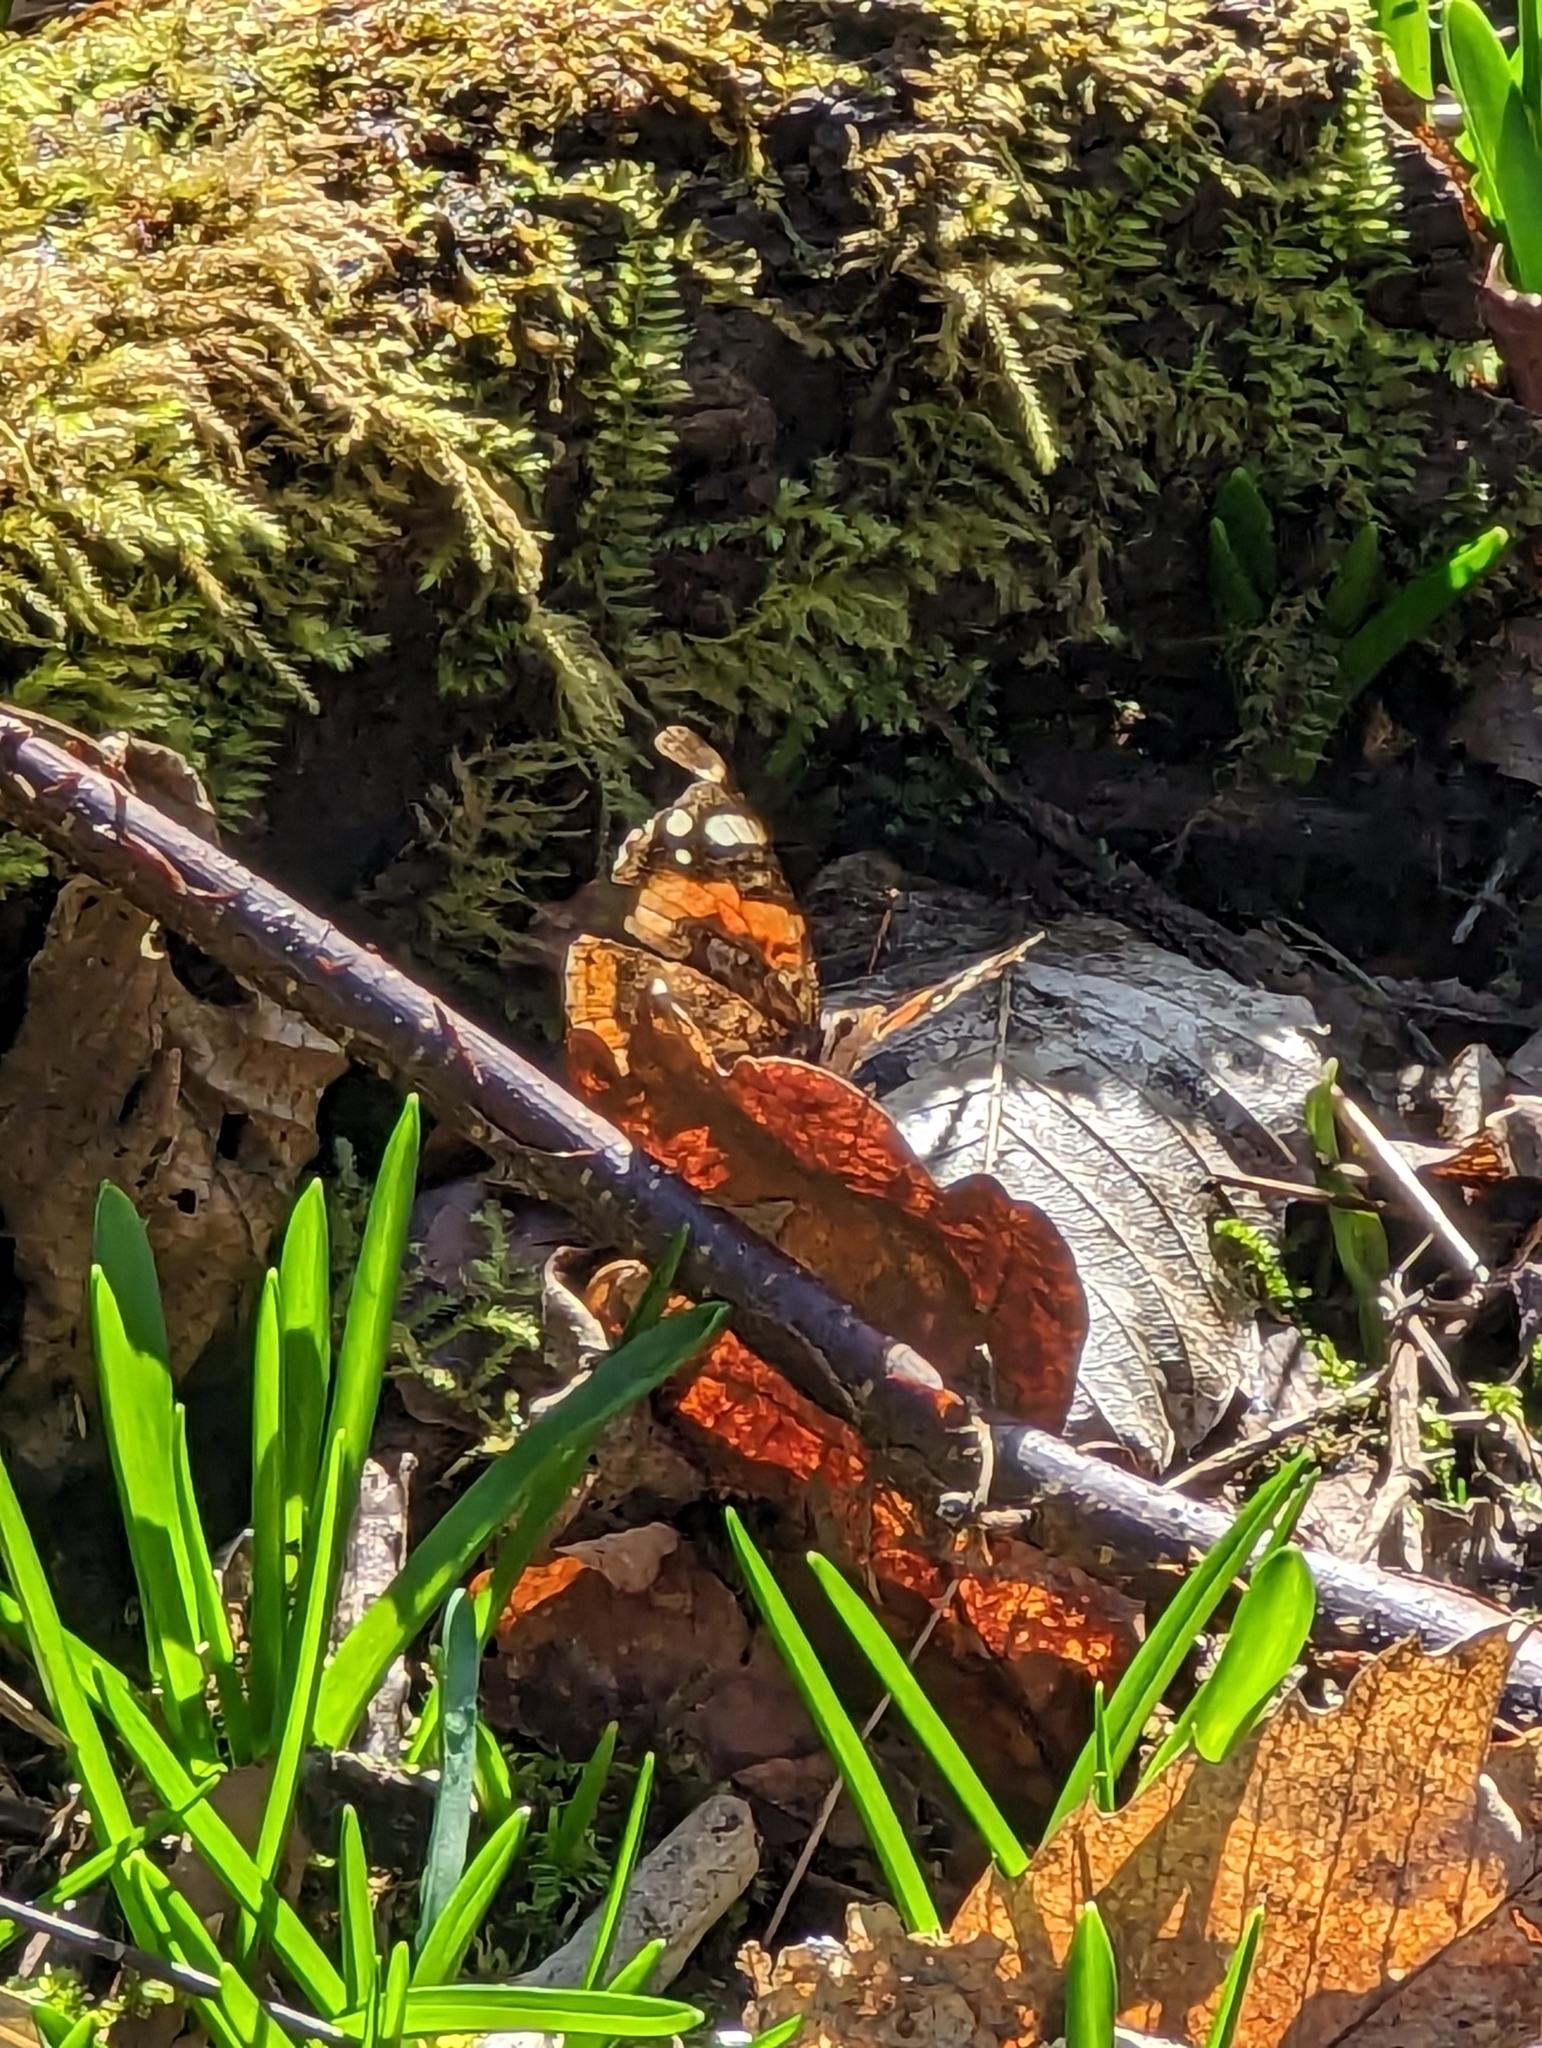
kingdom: Animalia
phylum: Arthropoda
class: Insecta
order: Lepidoptera
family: Nymphalidae
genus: Vanessa
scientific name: Vanessa atalanta
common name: Red admiral
